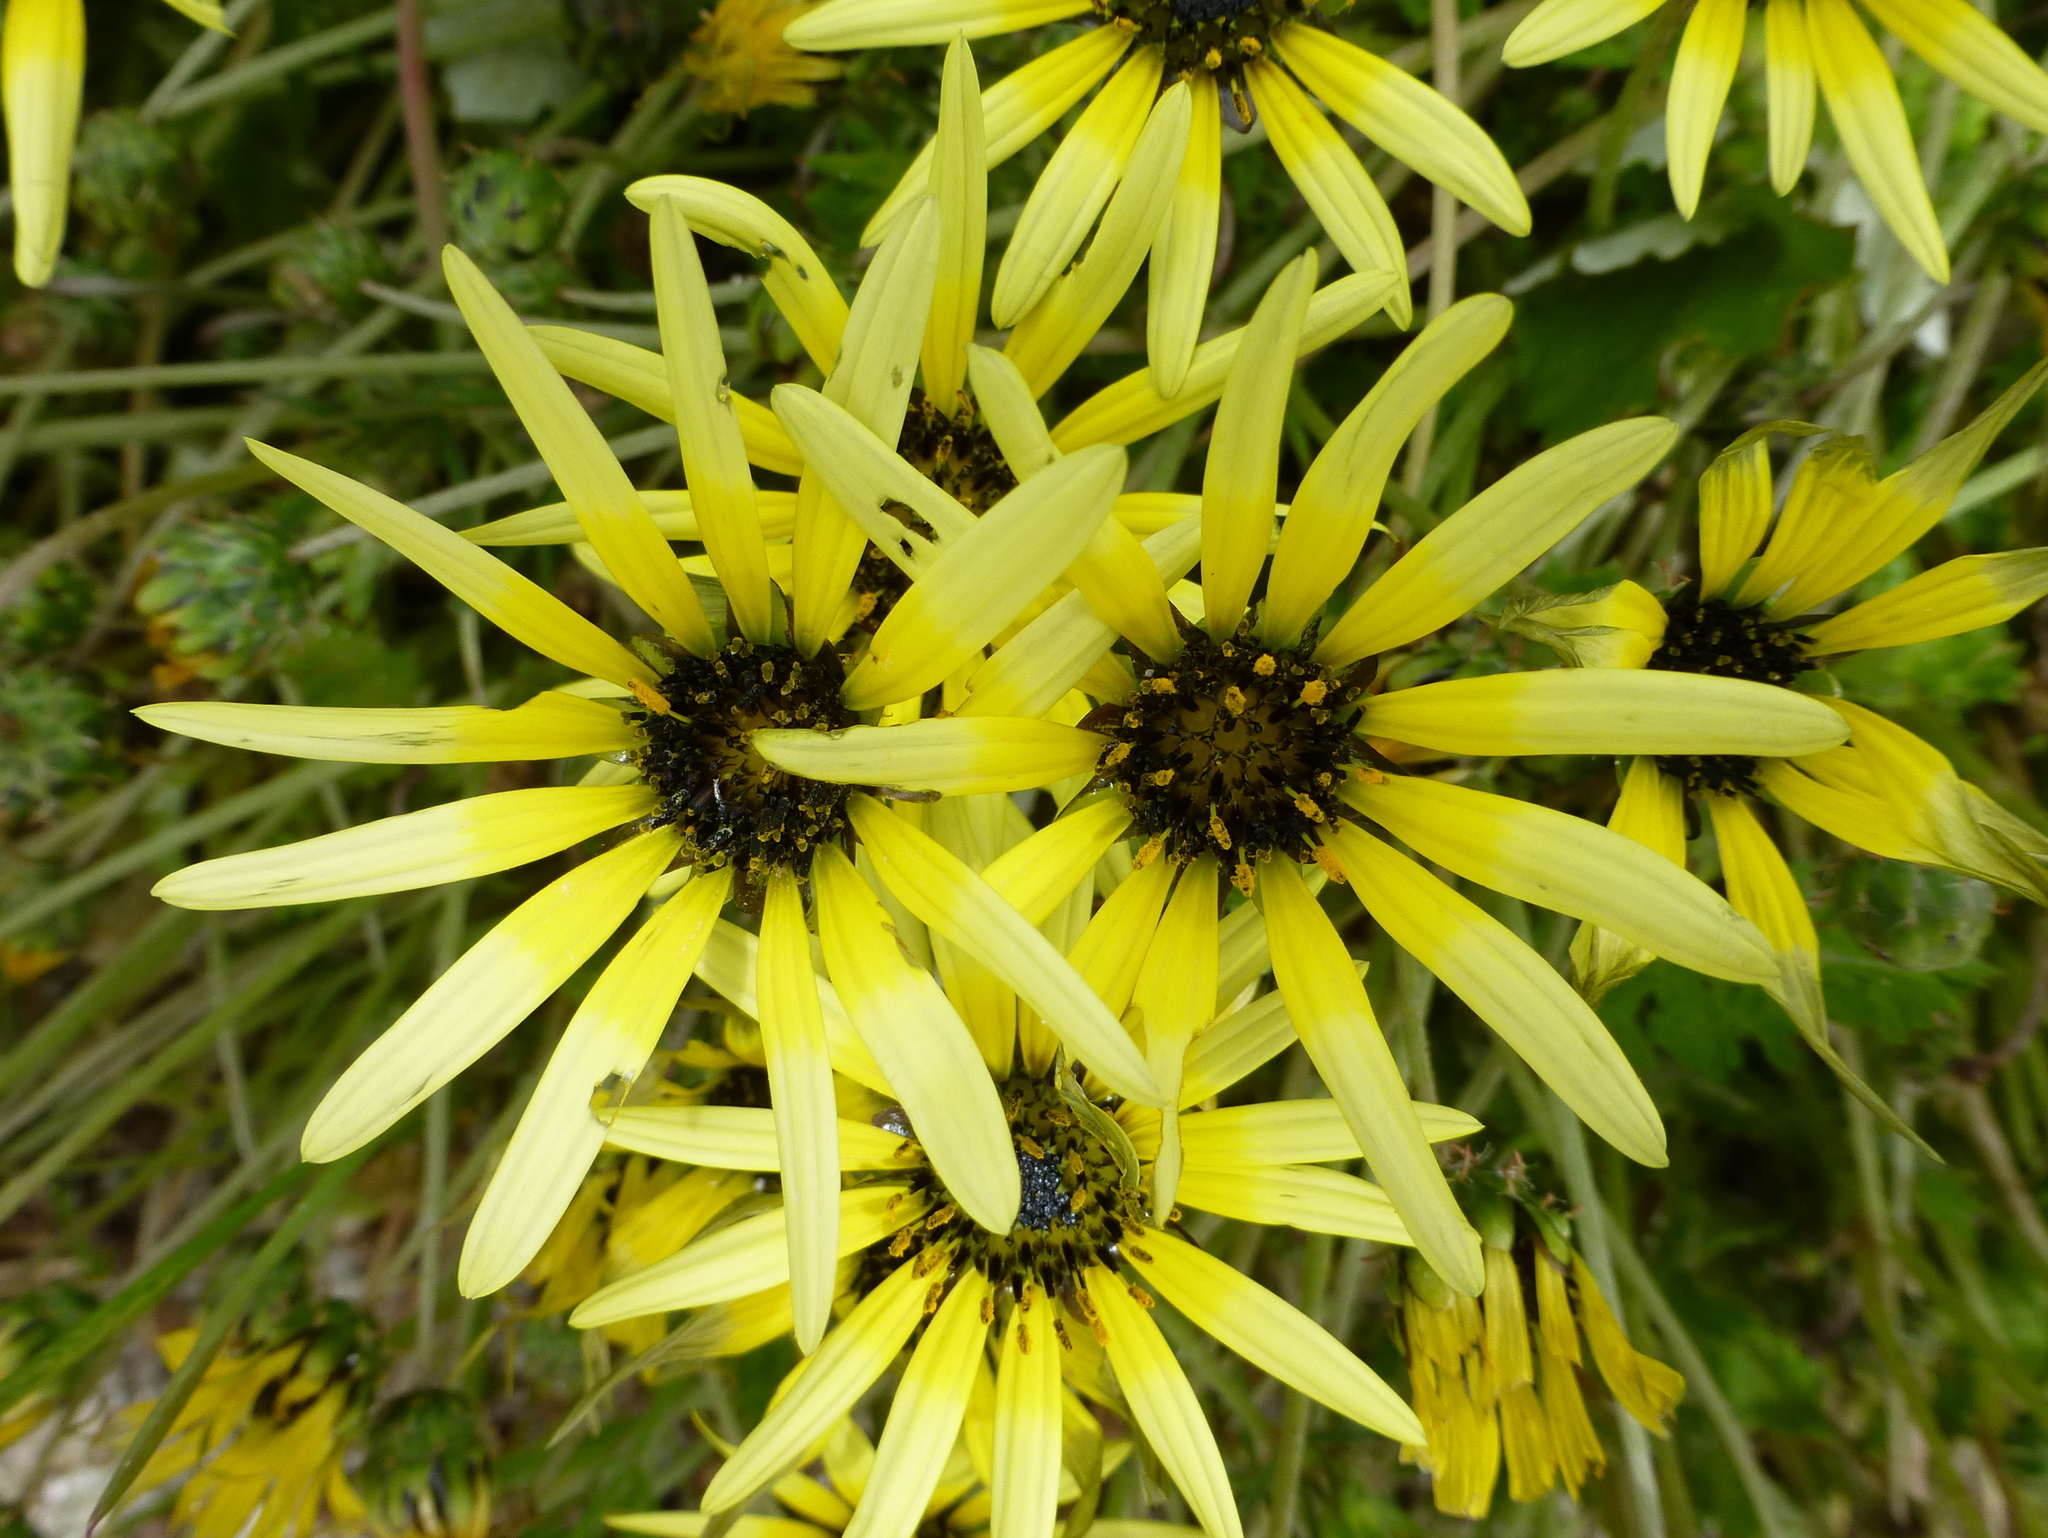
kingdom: Plantae
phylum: Tracheophyta
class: Magnoliopsida
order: Asterales
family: Asteraceae
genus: Arctotheca
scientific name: Arctotheca calendula
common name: Capeweed
